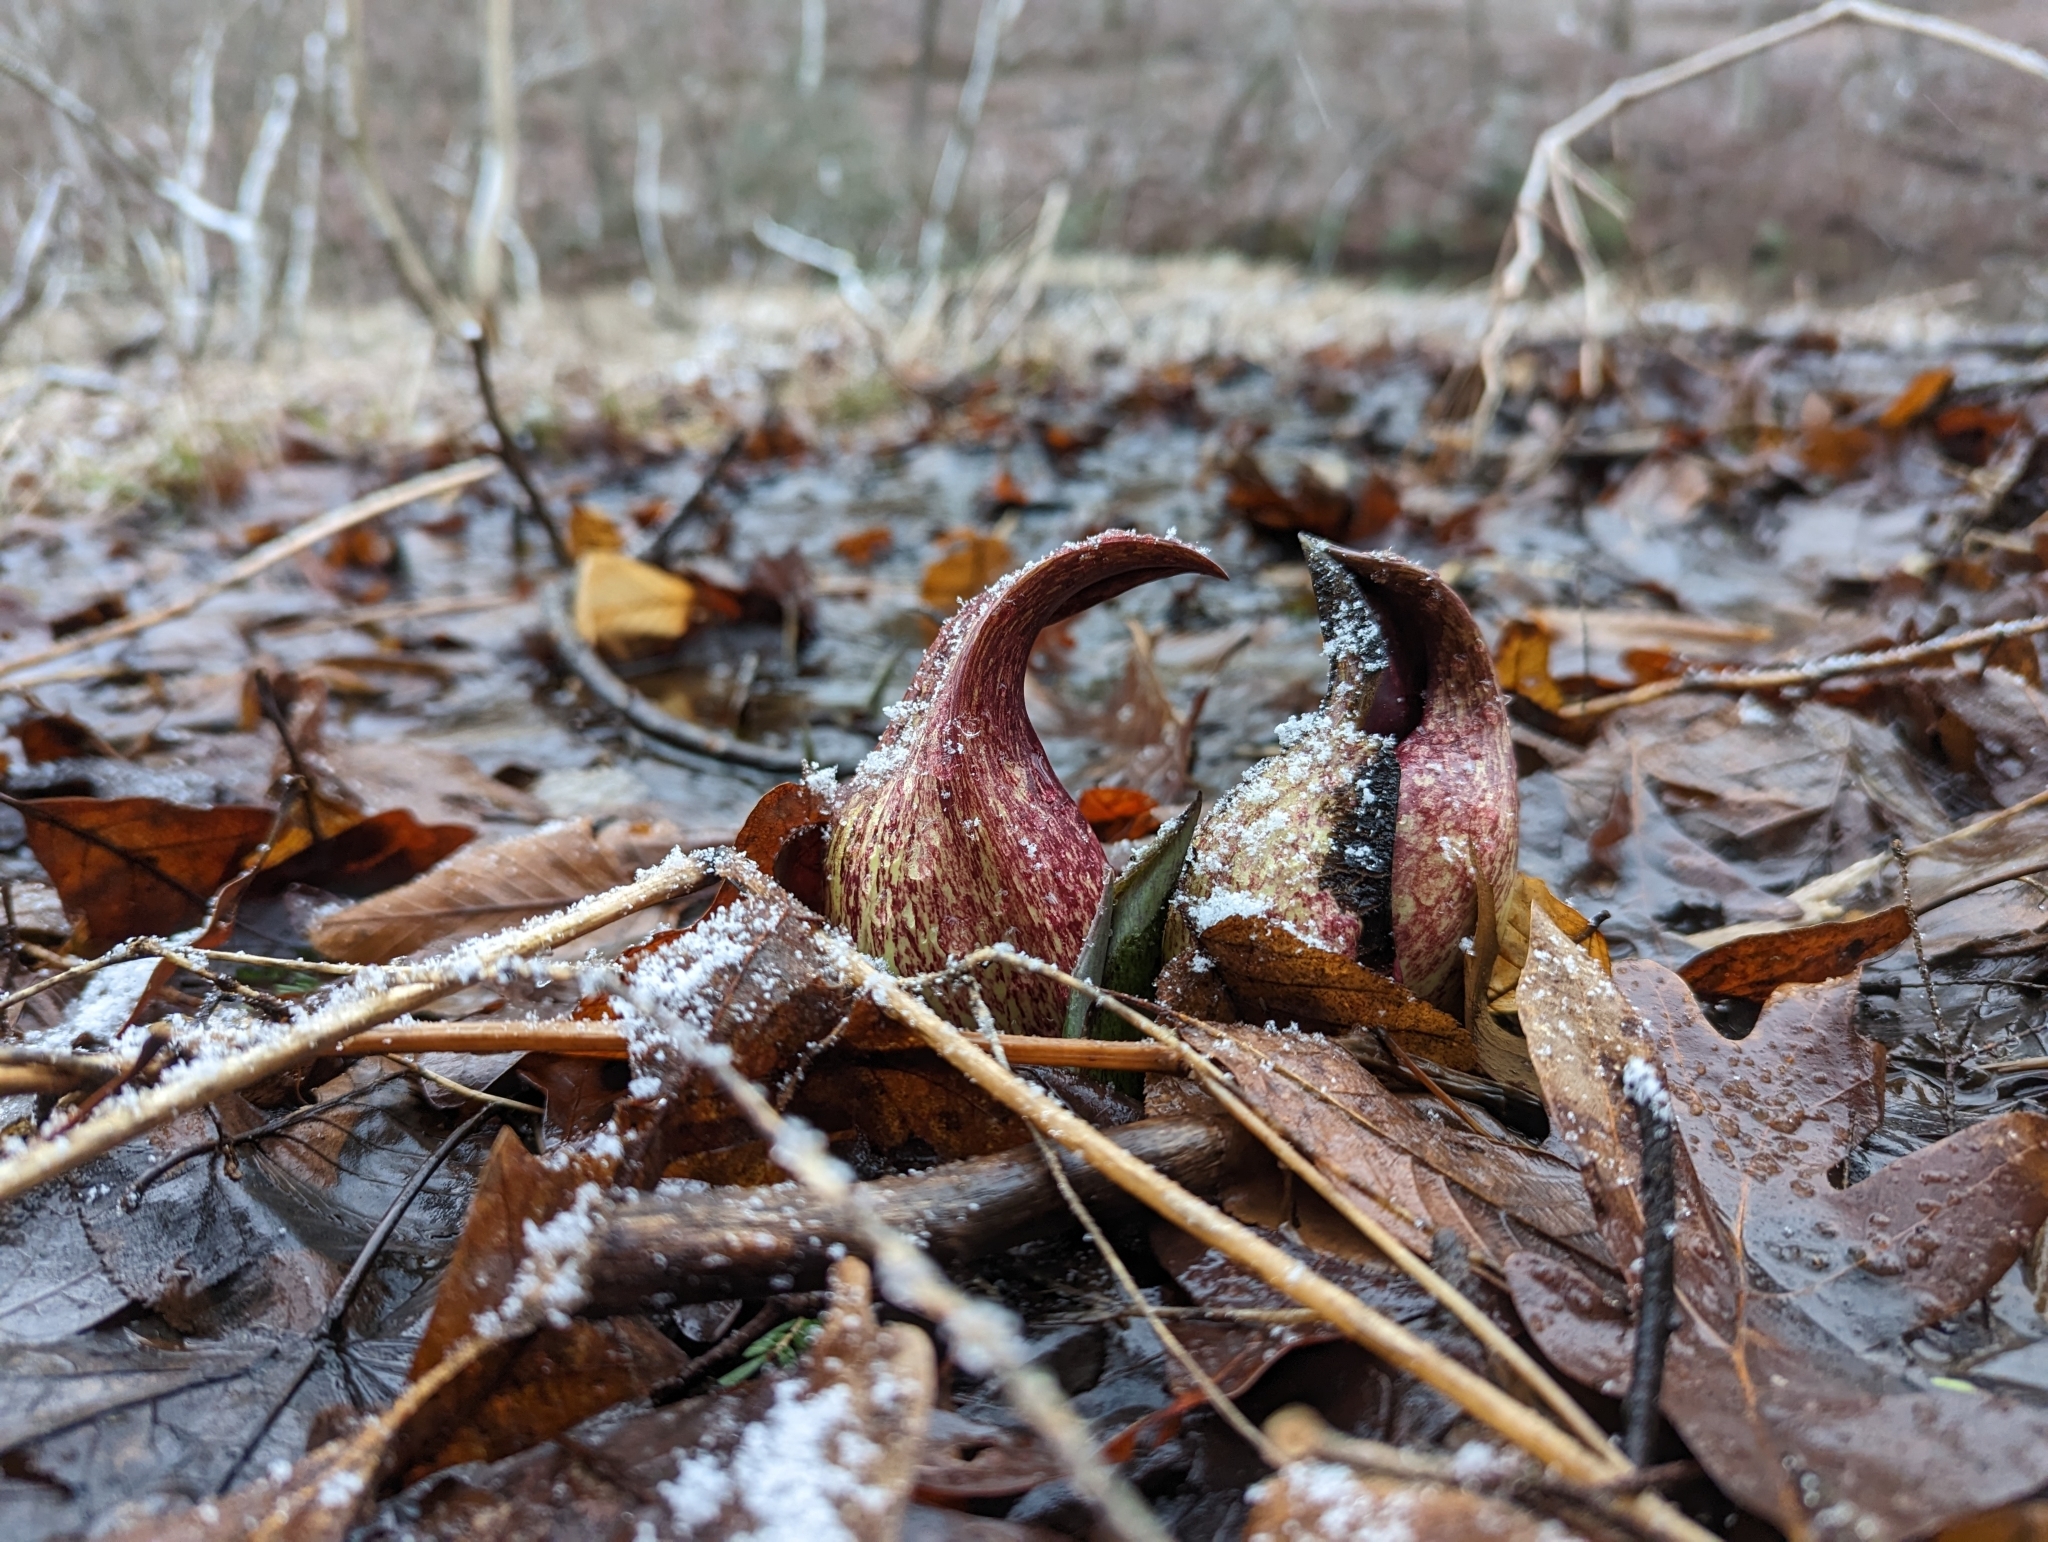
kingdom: Plantae
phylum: Tracheophyta
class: Liliopsida
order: Alismatales
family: Araceae
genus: Symplocarpus
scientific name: Symplocarpus foetidus
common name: Eastern skunk cabbage
